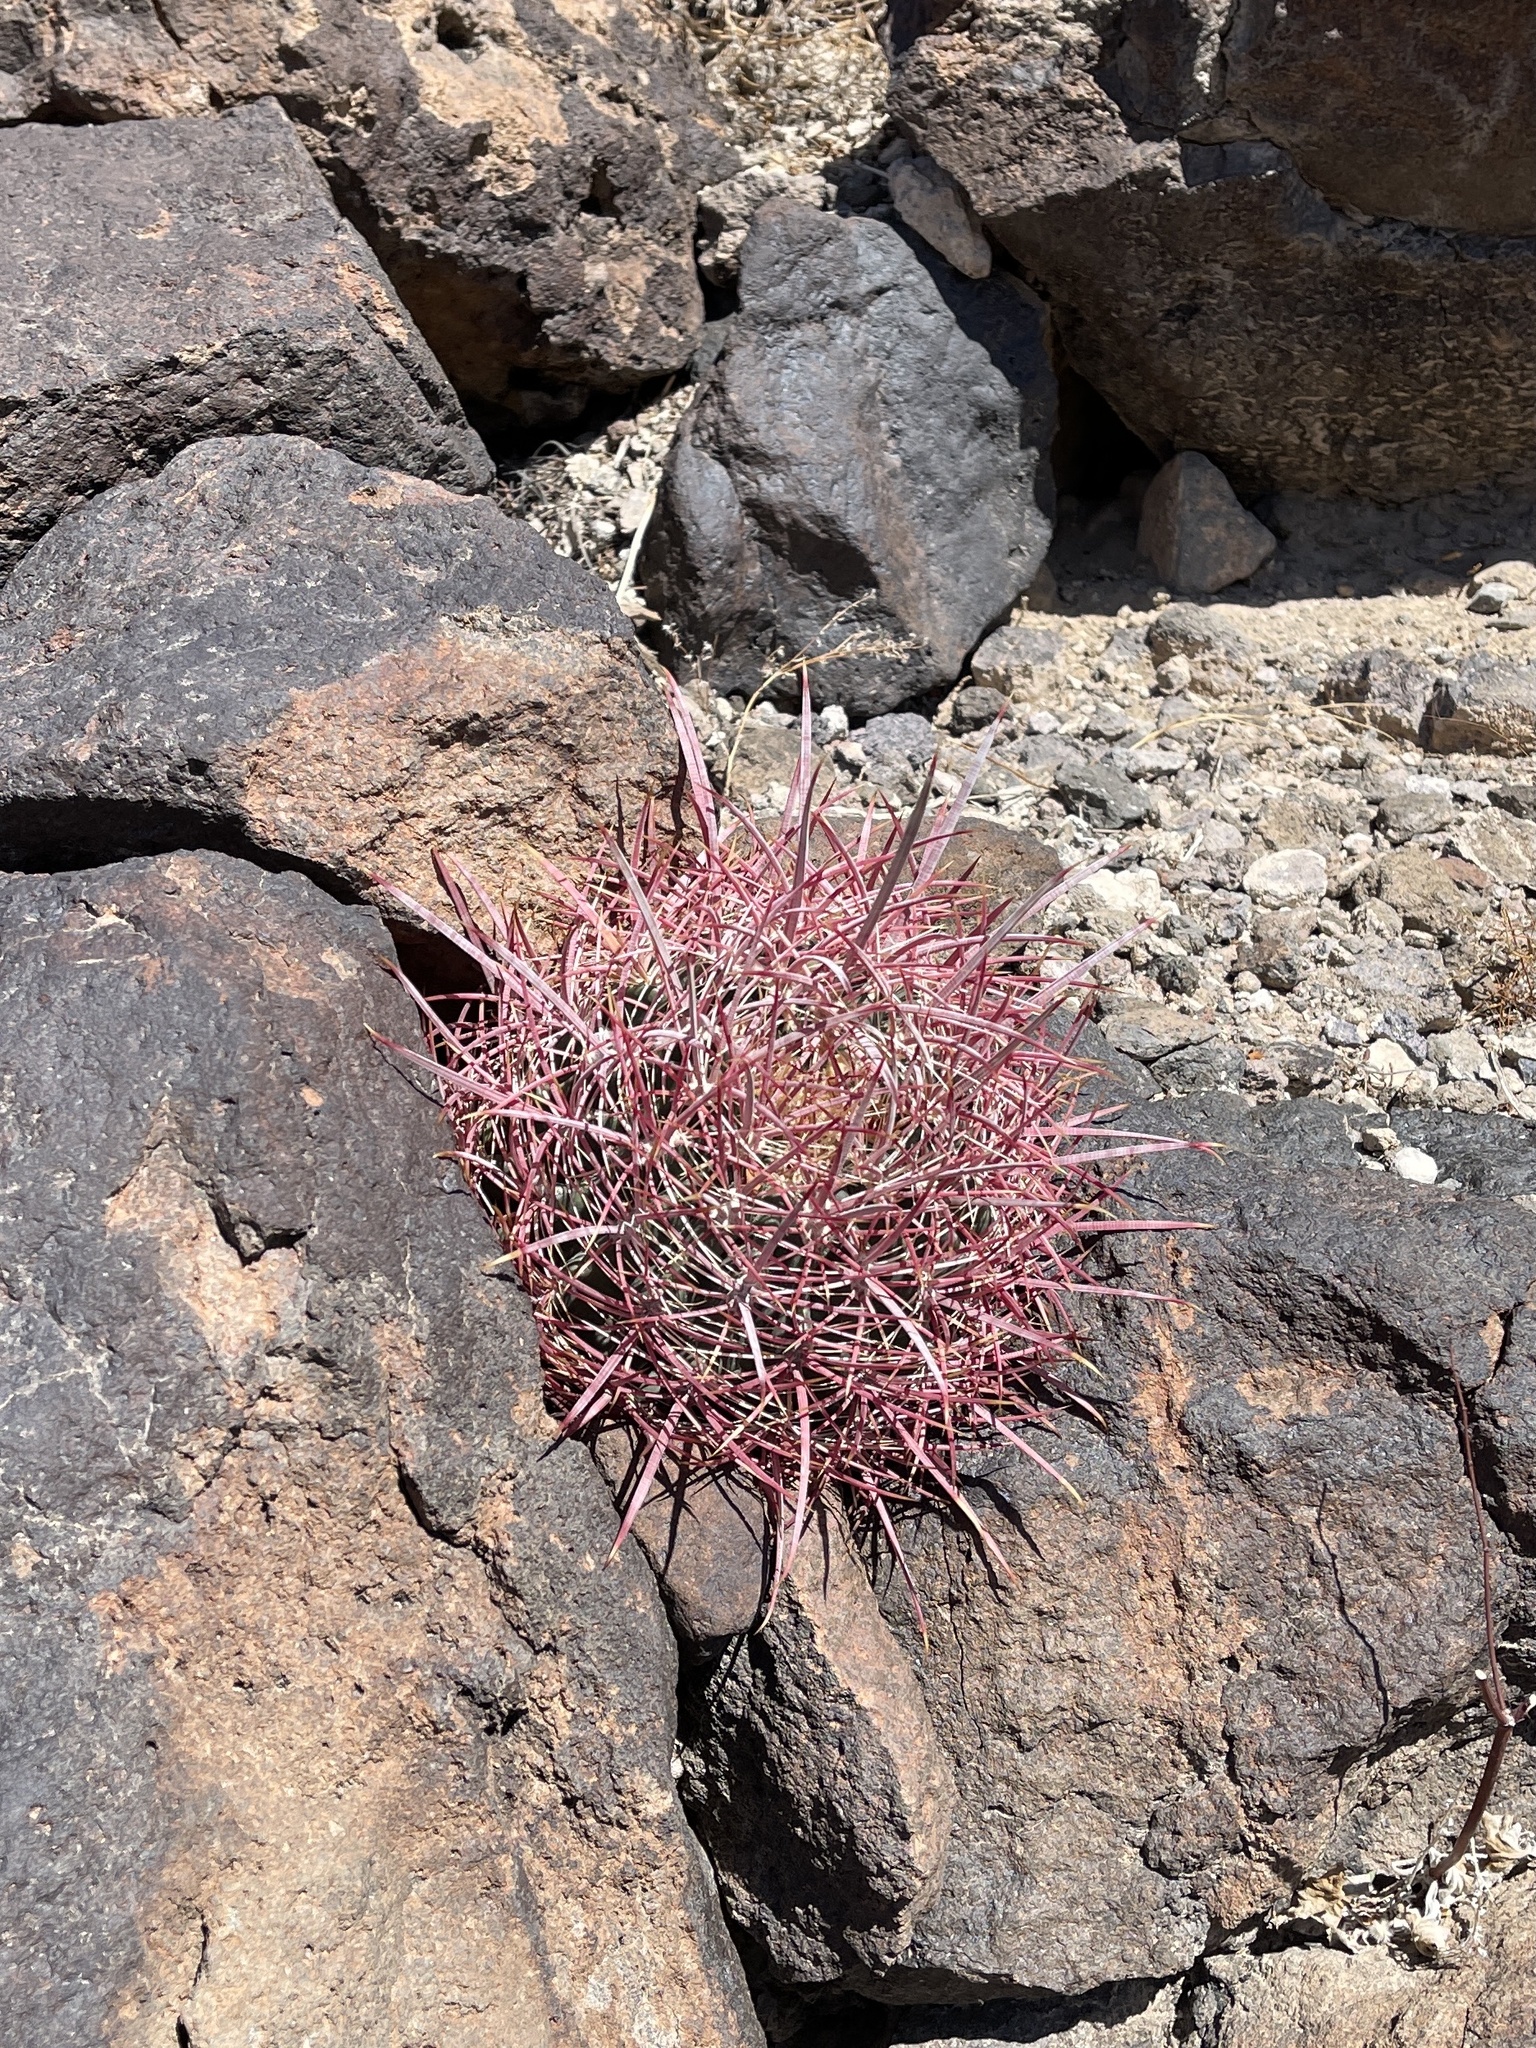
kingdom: Plantae
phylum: Tracheophyta
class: Magnoliopsida
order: Caryophyllales
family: Cactaceae
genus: Ferocactus
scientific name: Ferocactus cylindraceus
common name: California barrel cactus
